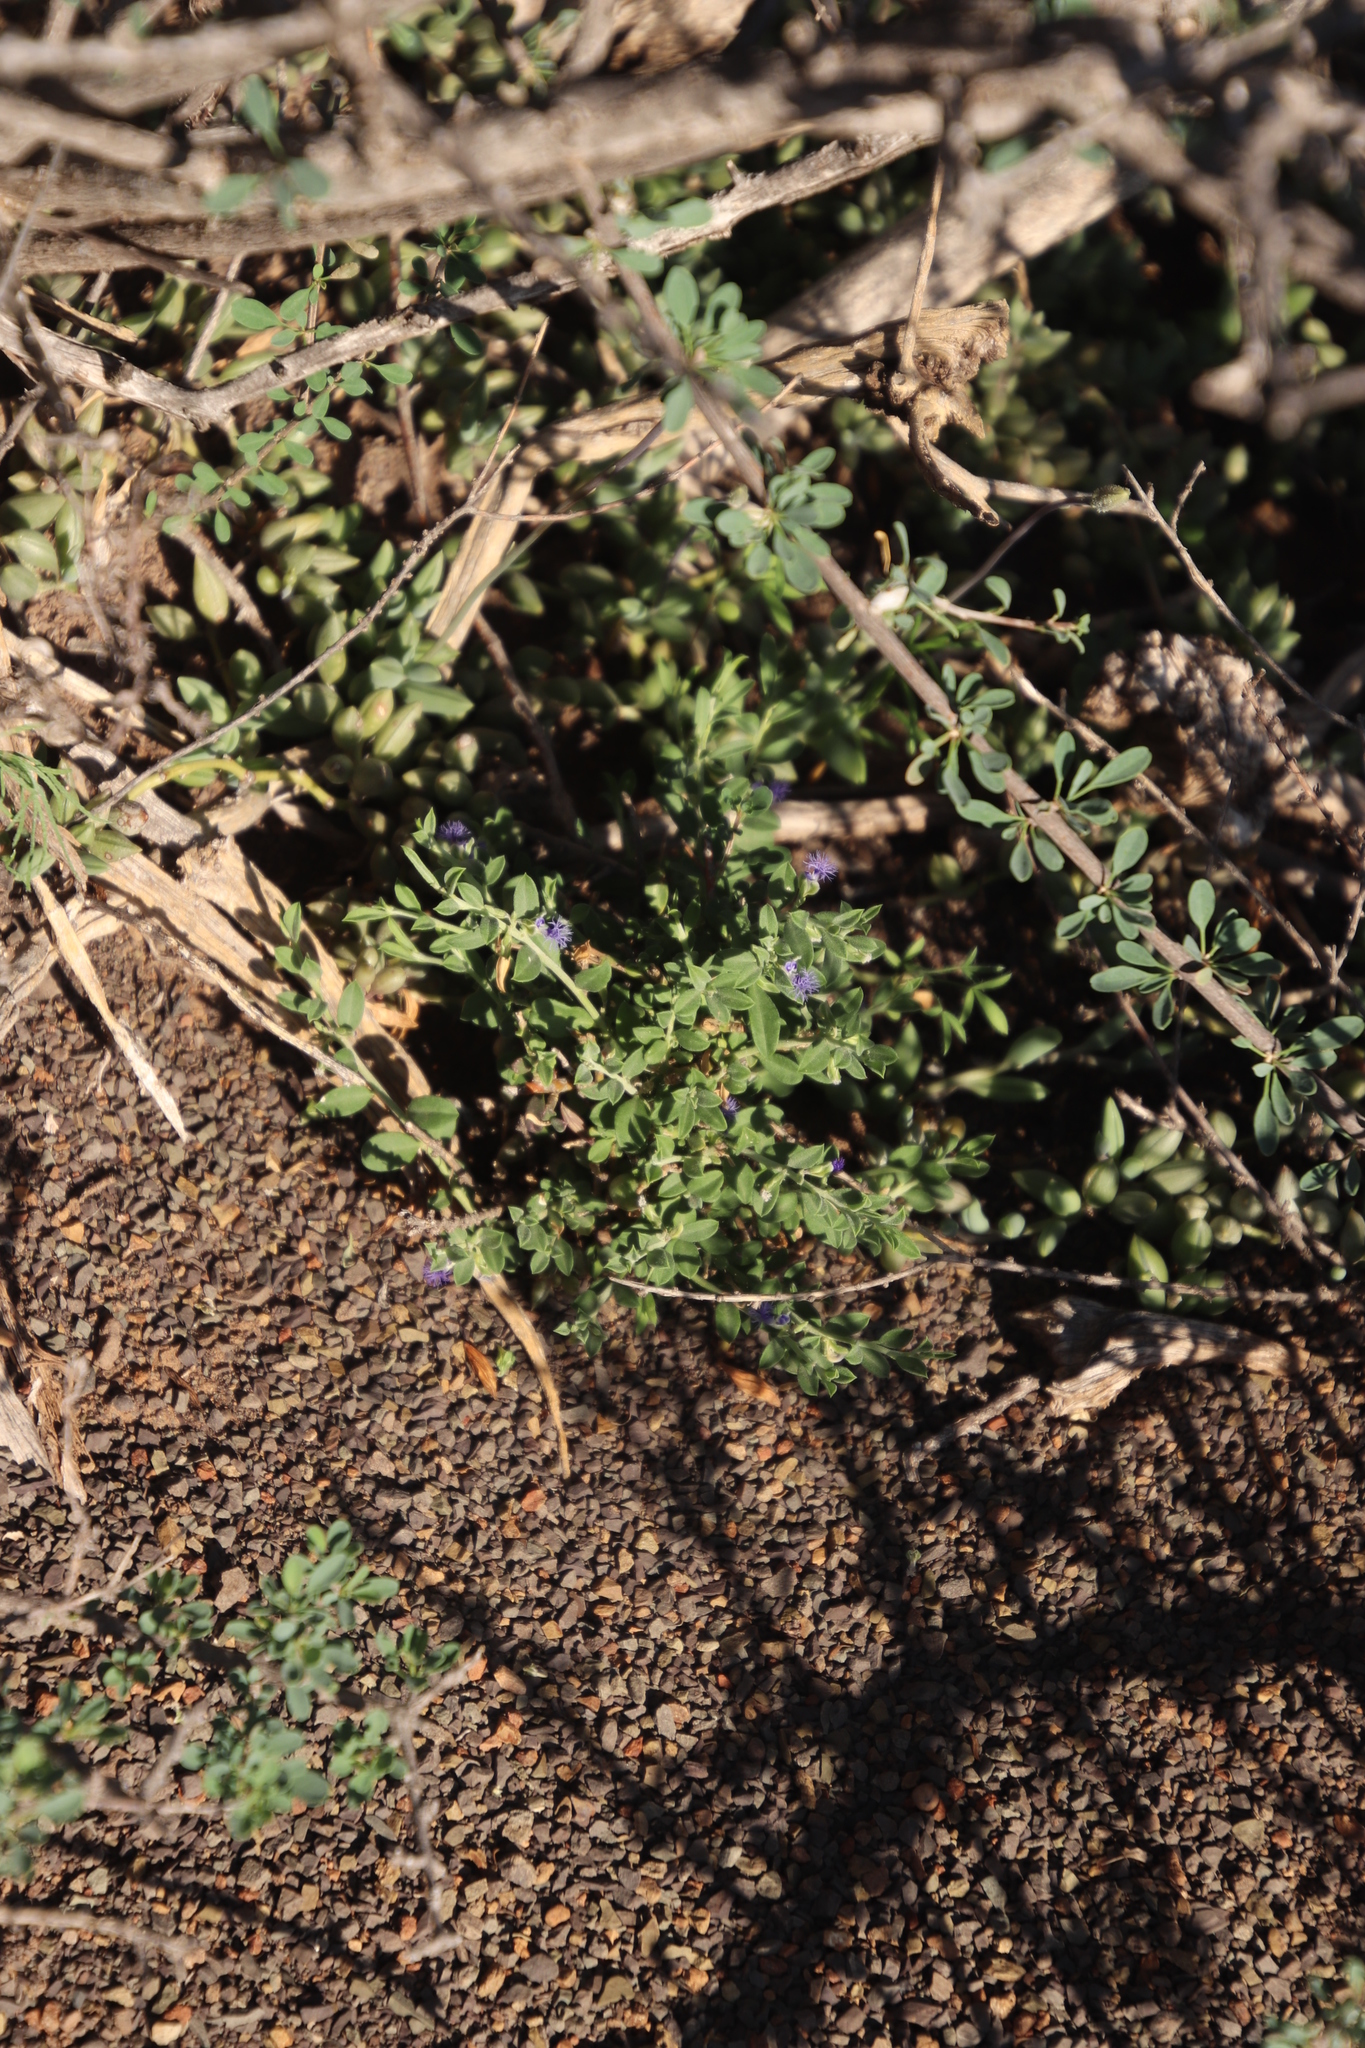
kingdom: Plantae
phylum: Tracheophyta
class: Magnoliopsida
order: Fabales
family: Polygalaceae
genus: Polygala
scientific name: Polygala asbestina
